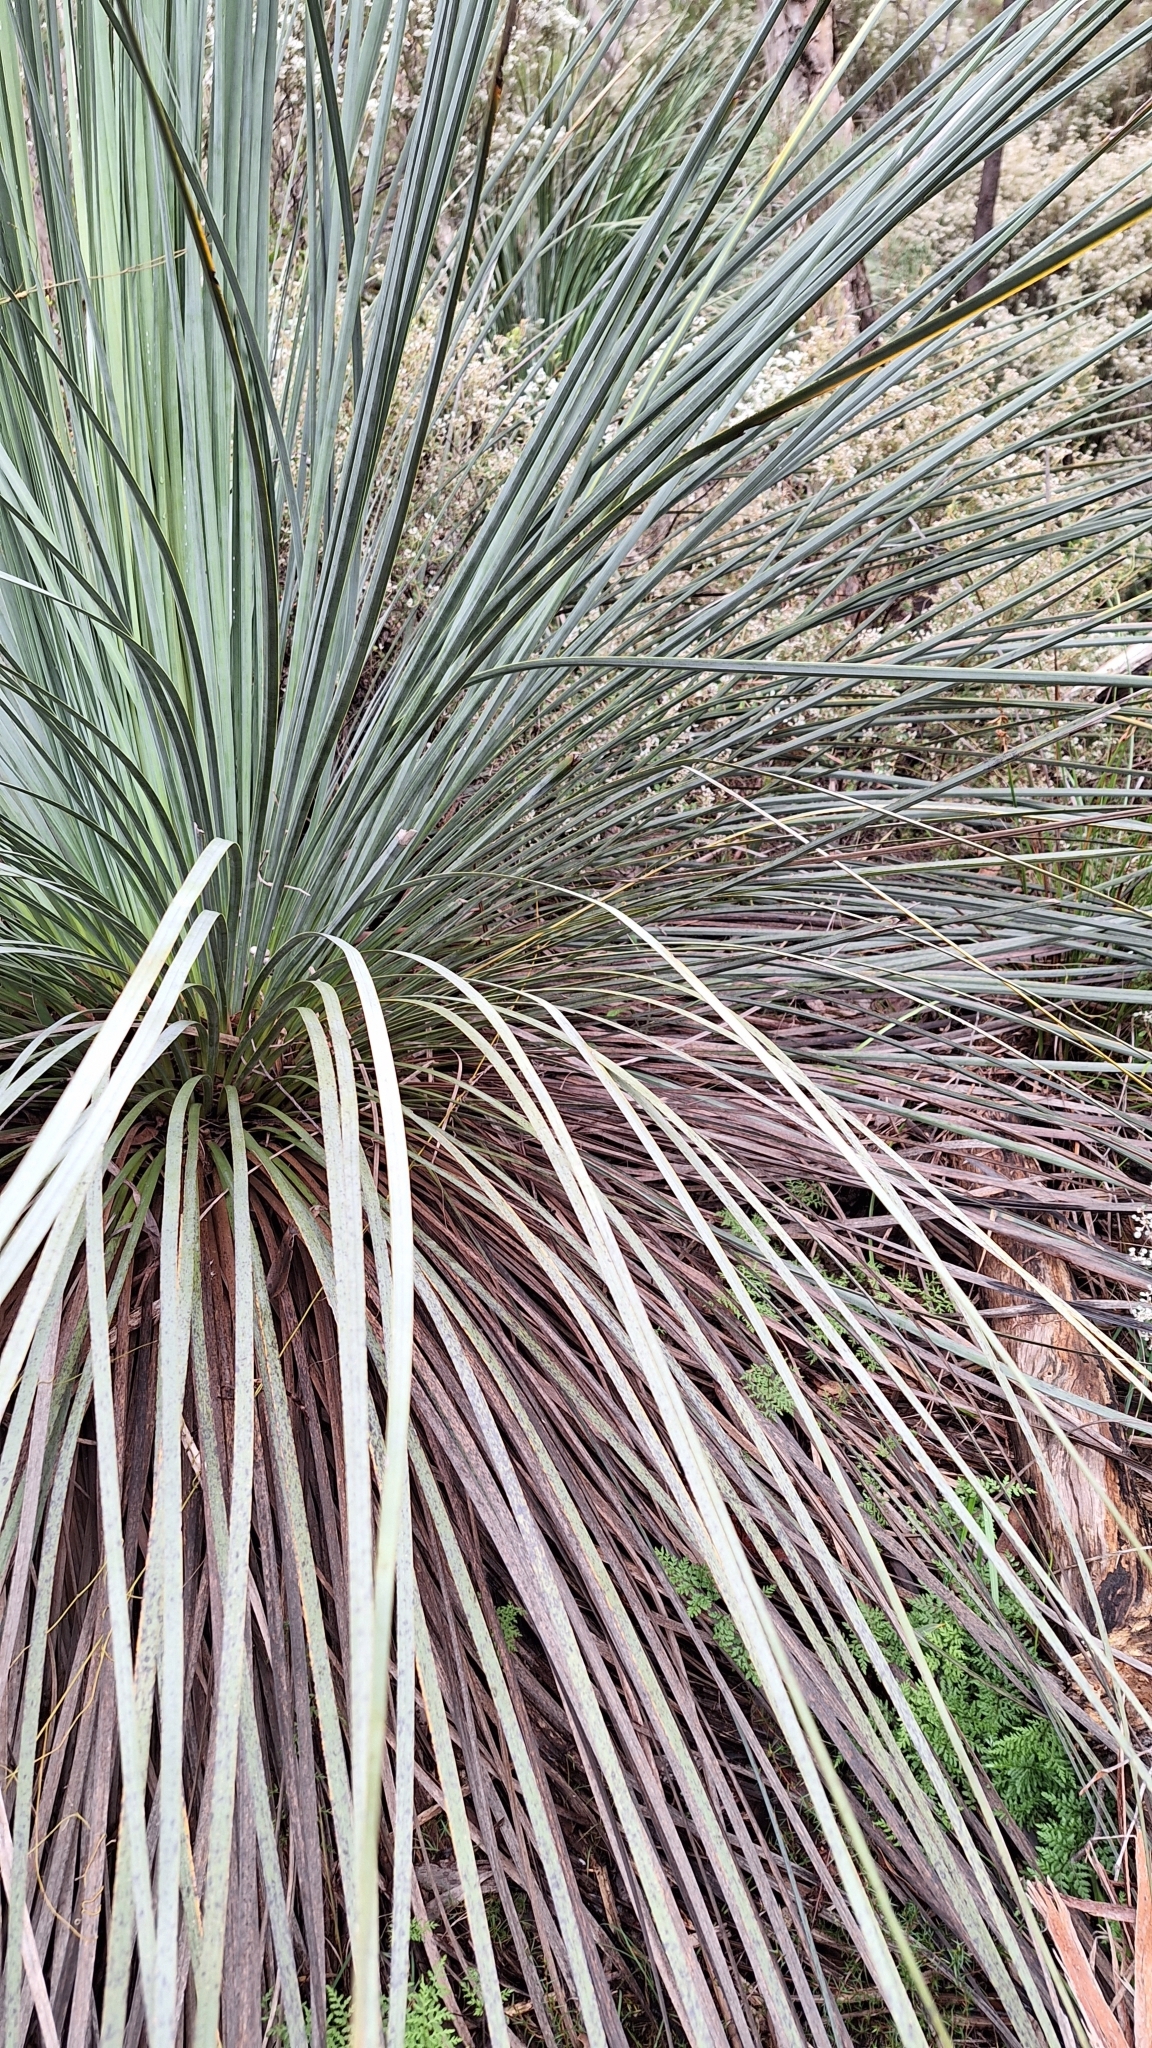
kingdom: Plantae
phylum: Tracheophyta
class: Liliopsida
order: Asparagales
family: Asphodelaceae
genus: Xanthorrhoea
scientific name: Xanthorrhoea semiplana
